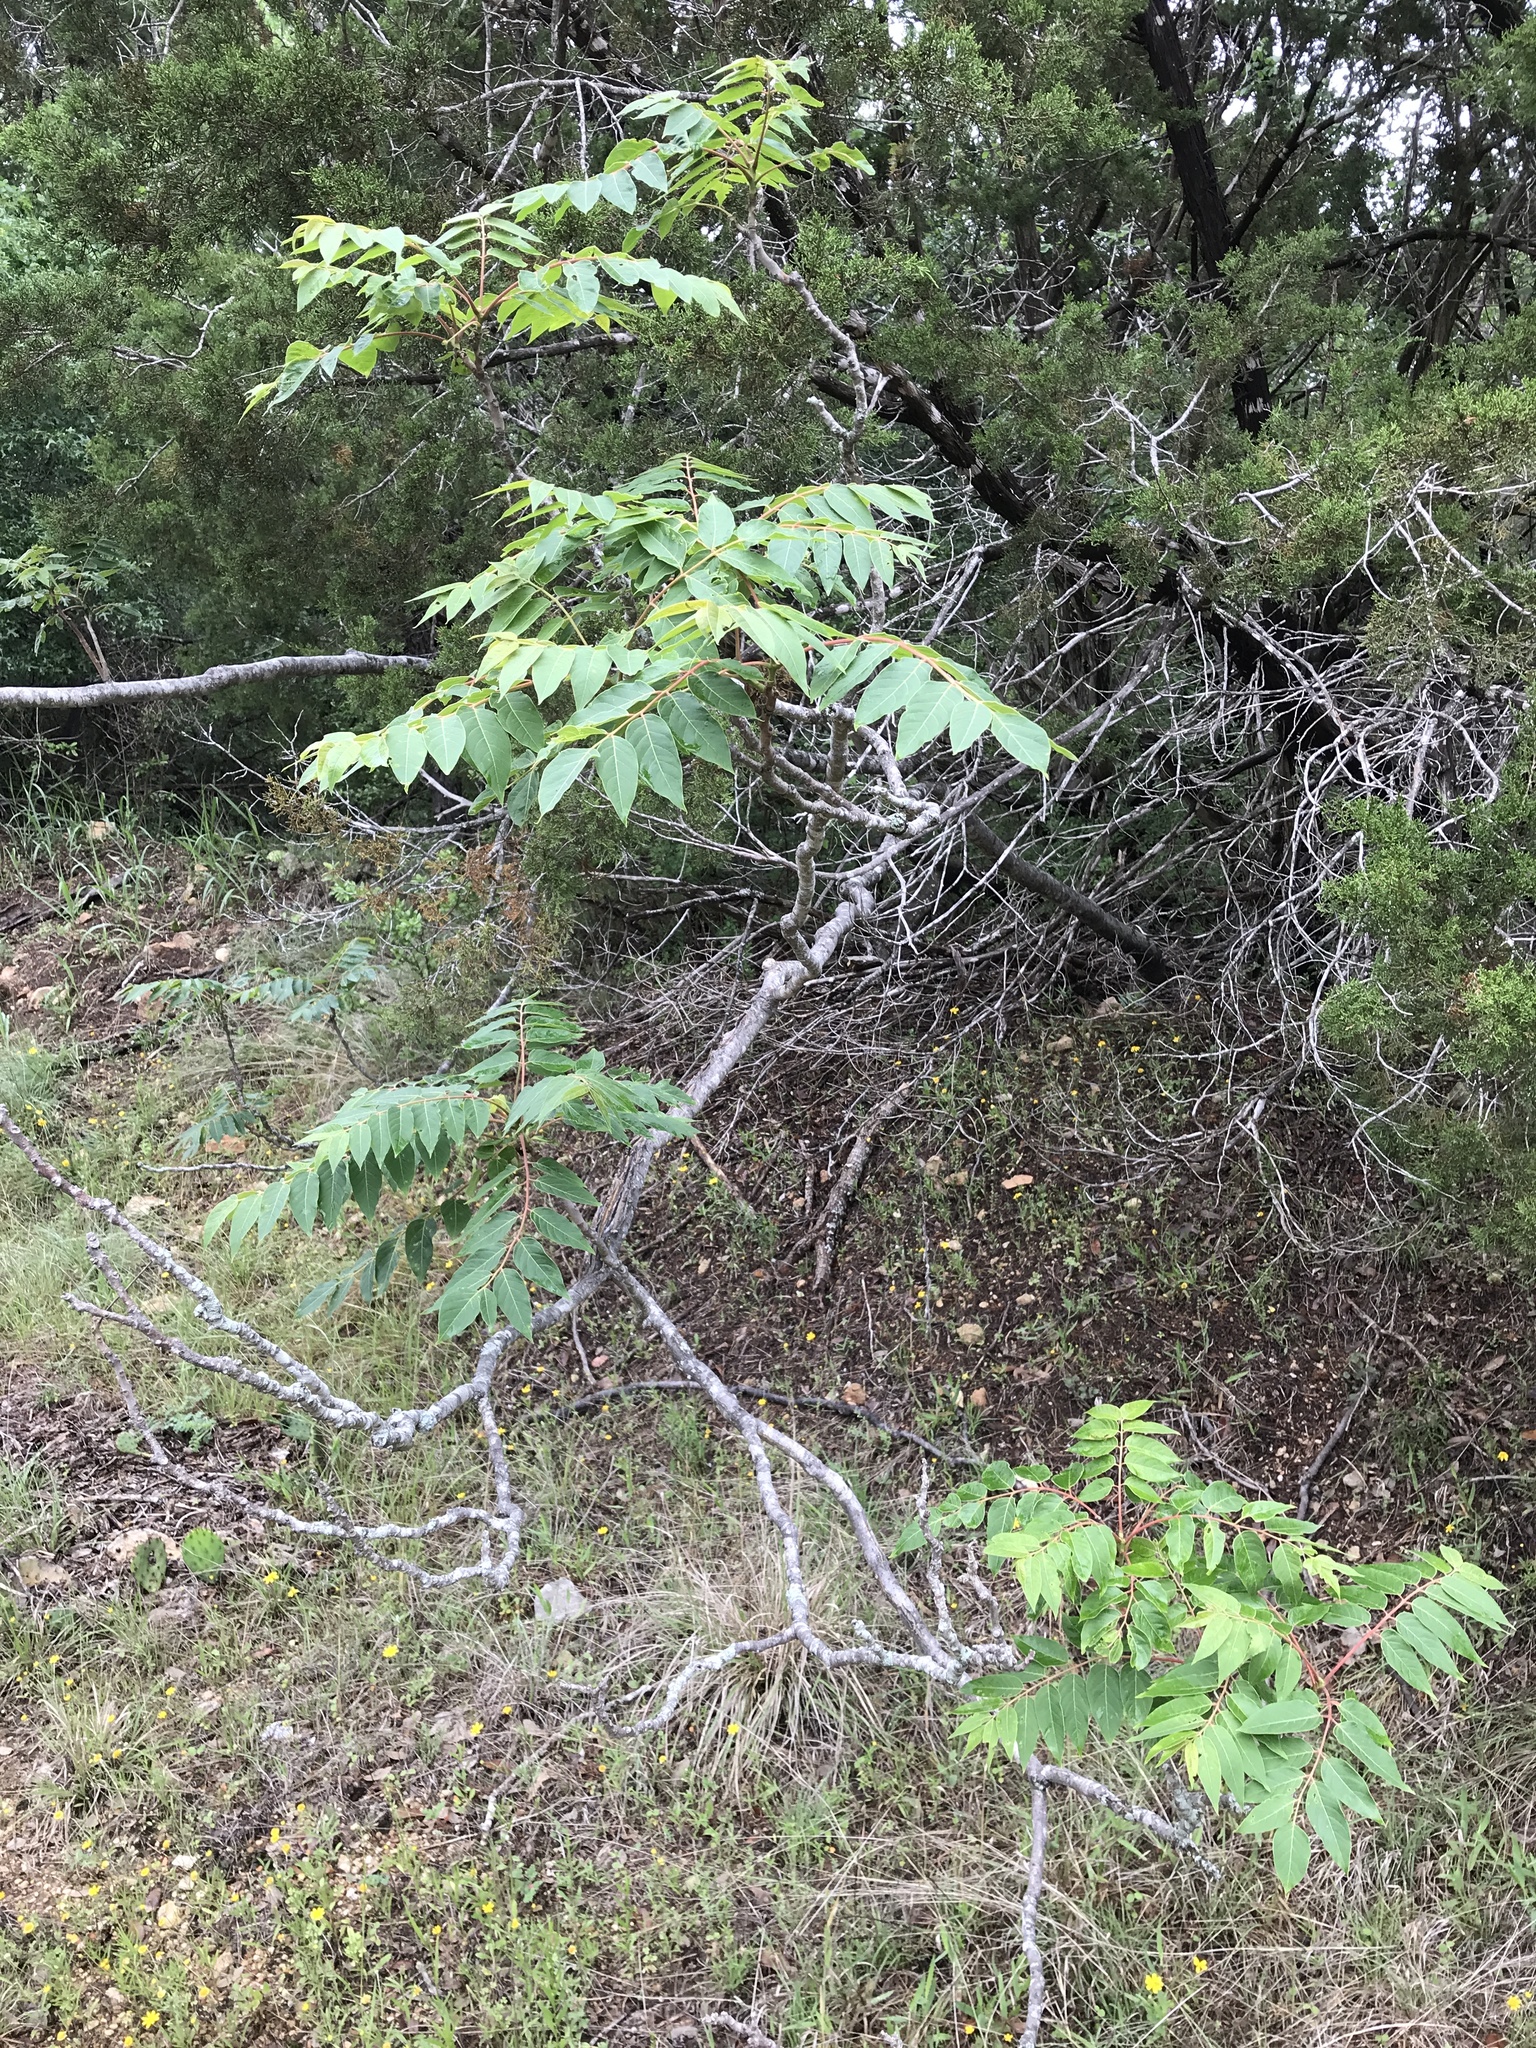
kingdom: Plantae
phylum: Tracheophyta
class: Magnoliopsida
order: Sapindales
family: Simaroubaceae
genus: Ailanthus
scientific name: Ailanthus altissima
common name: Tree-of-heaven
